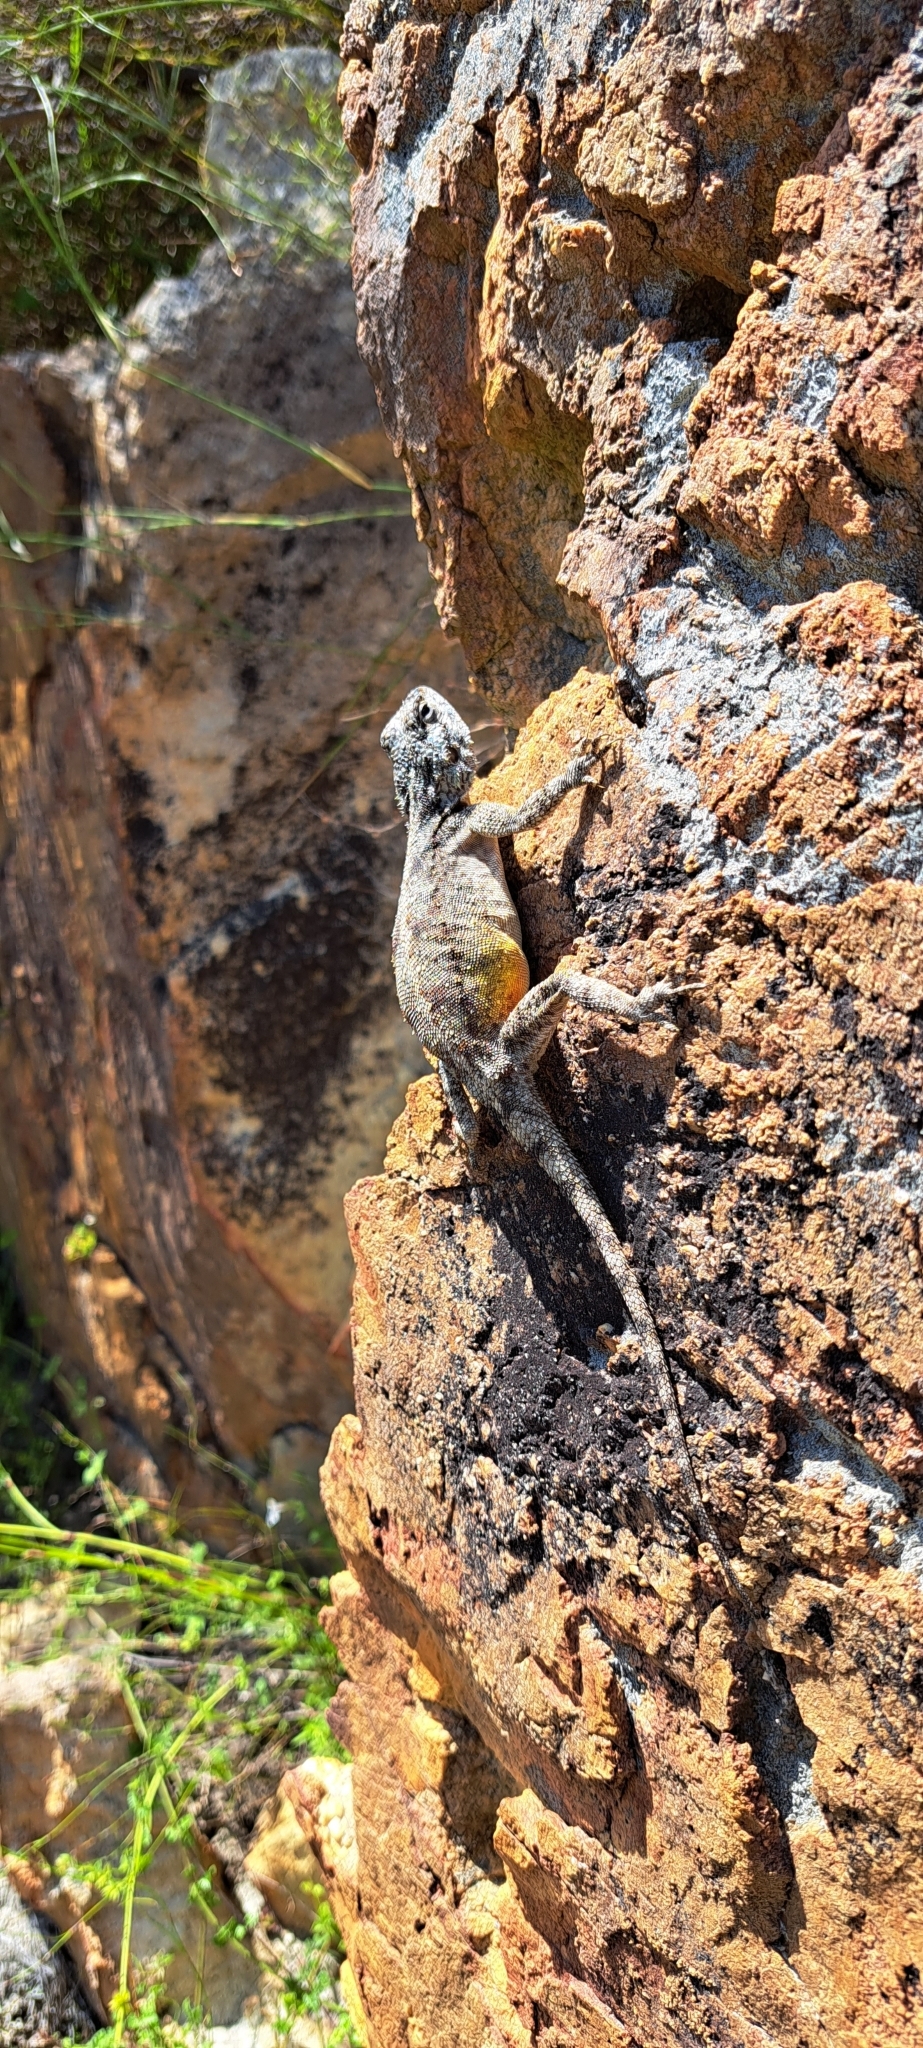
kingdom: Animalia
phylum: Chordata
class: Squamata
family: Agamidae
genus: Agama
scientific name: Agama atra
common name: Southern african rock agama
